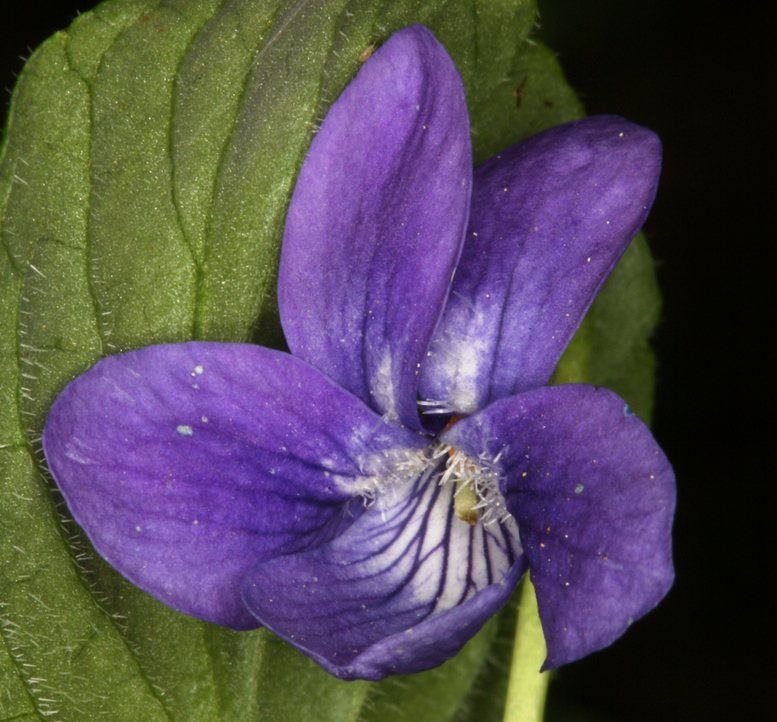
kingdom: Plantae
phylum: Tracheophyta
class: Magnoliopsida
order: Malpighiales
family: Violaceae
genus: Viola
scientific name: Viola adunca
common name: Sand violet
